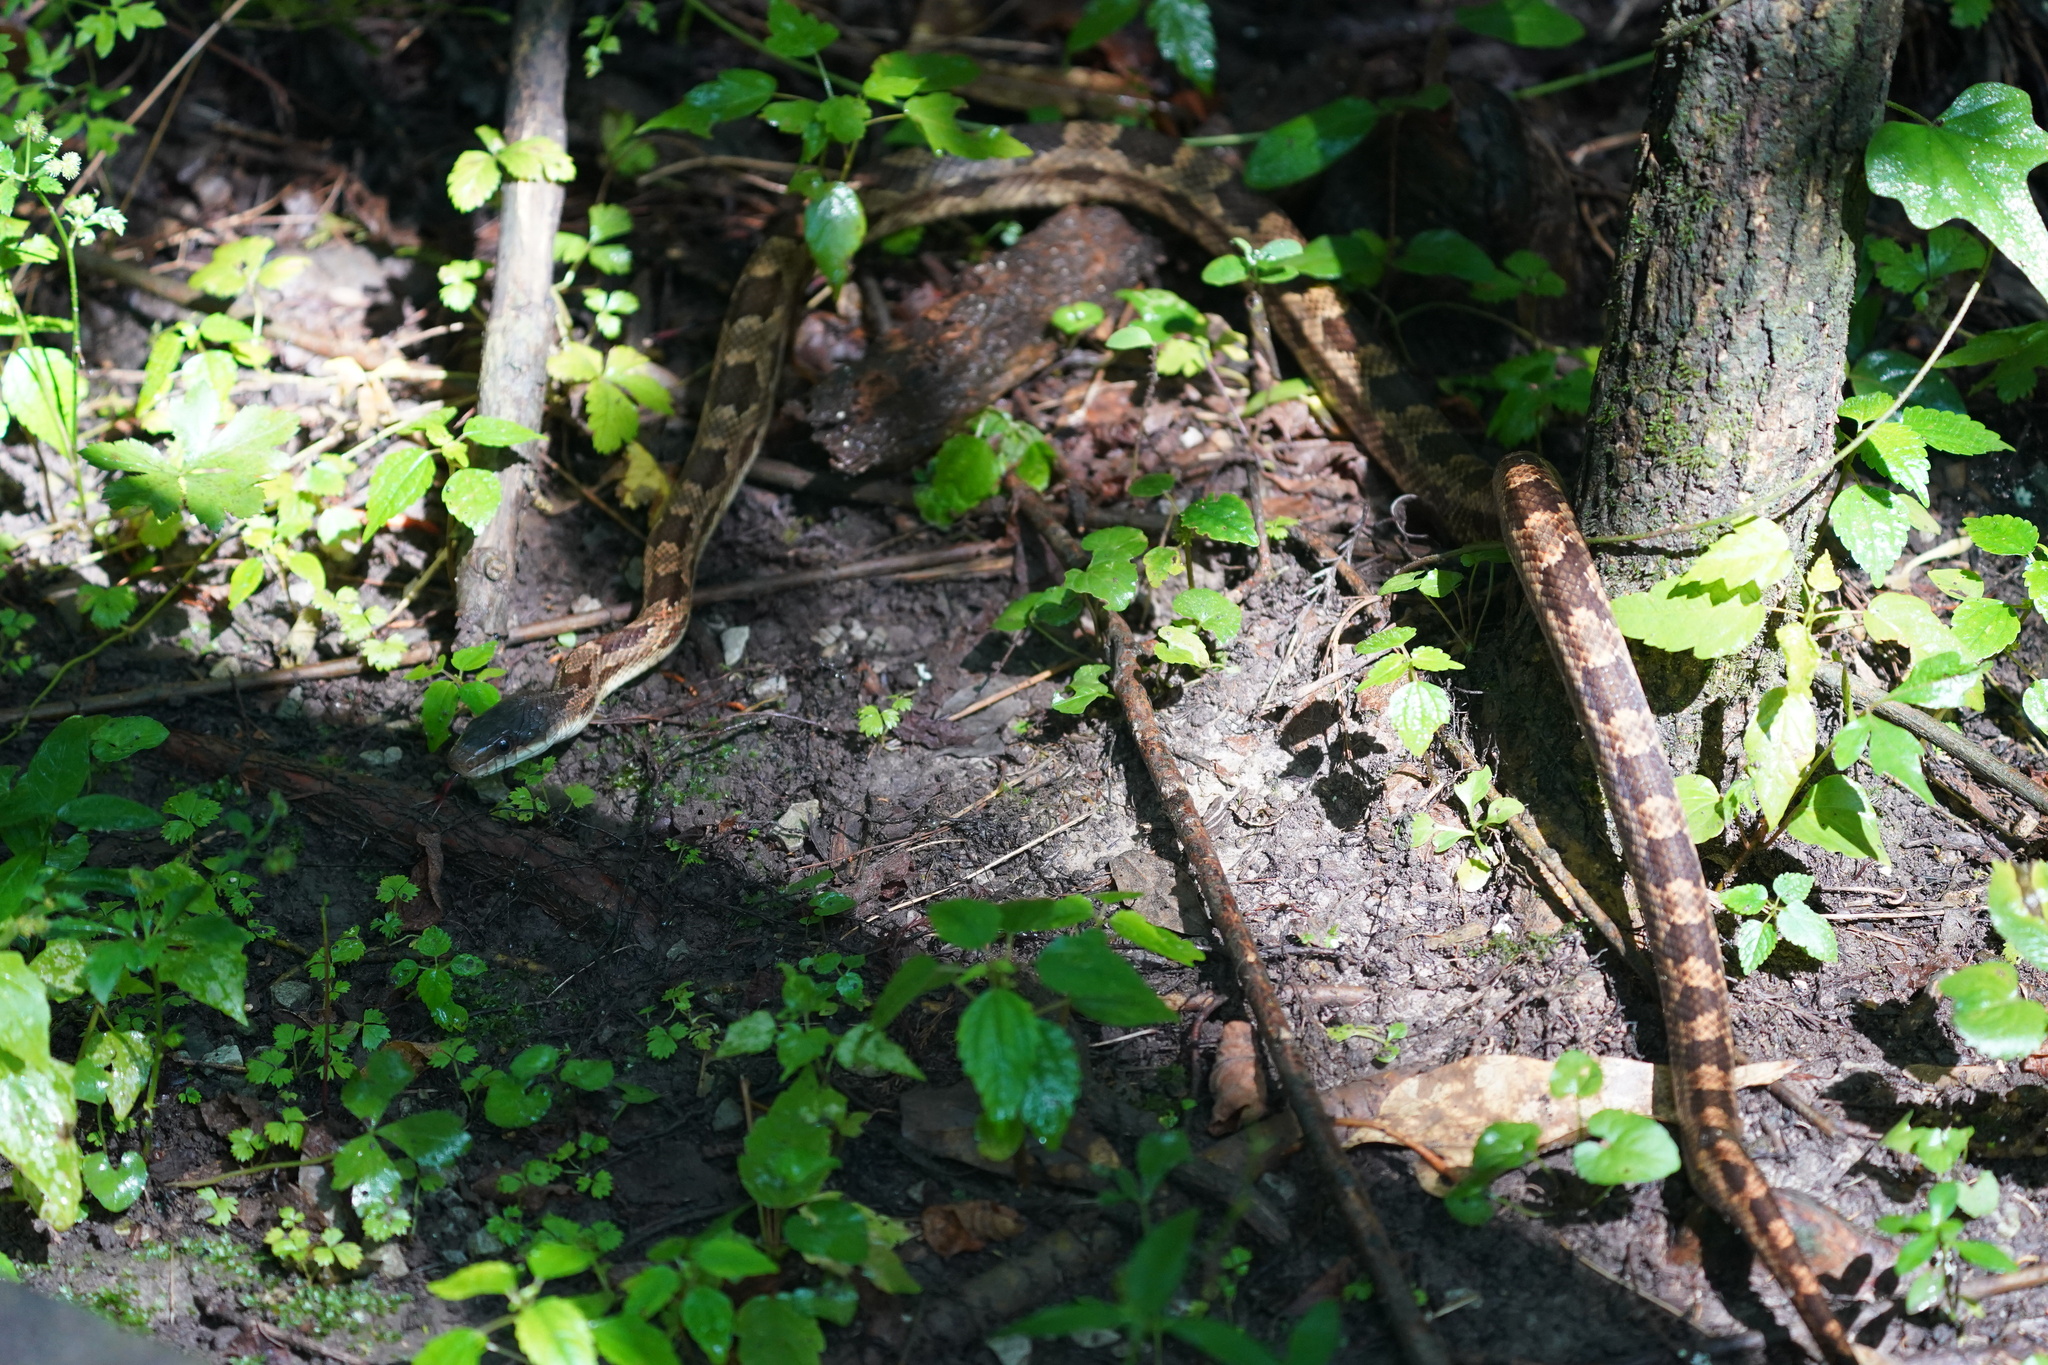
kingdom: Animalia
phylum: Chordata
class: Squamata
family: Colubridae
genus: Pantherophis
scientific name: Pantherophis spiloides
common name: Gray rat snake
